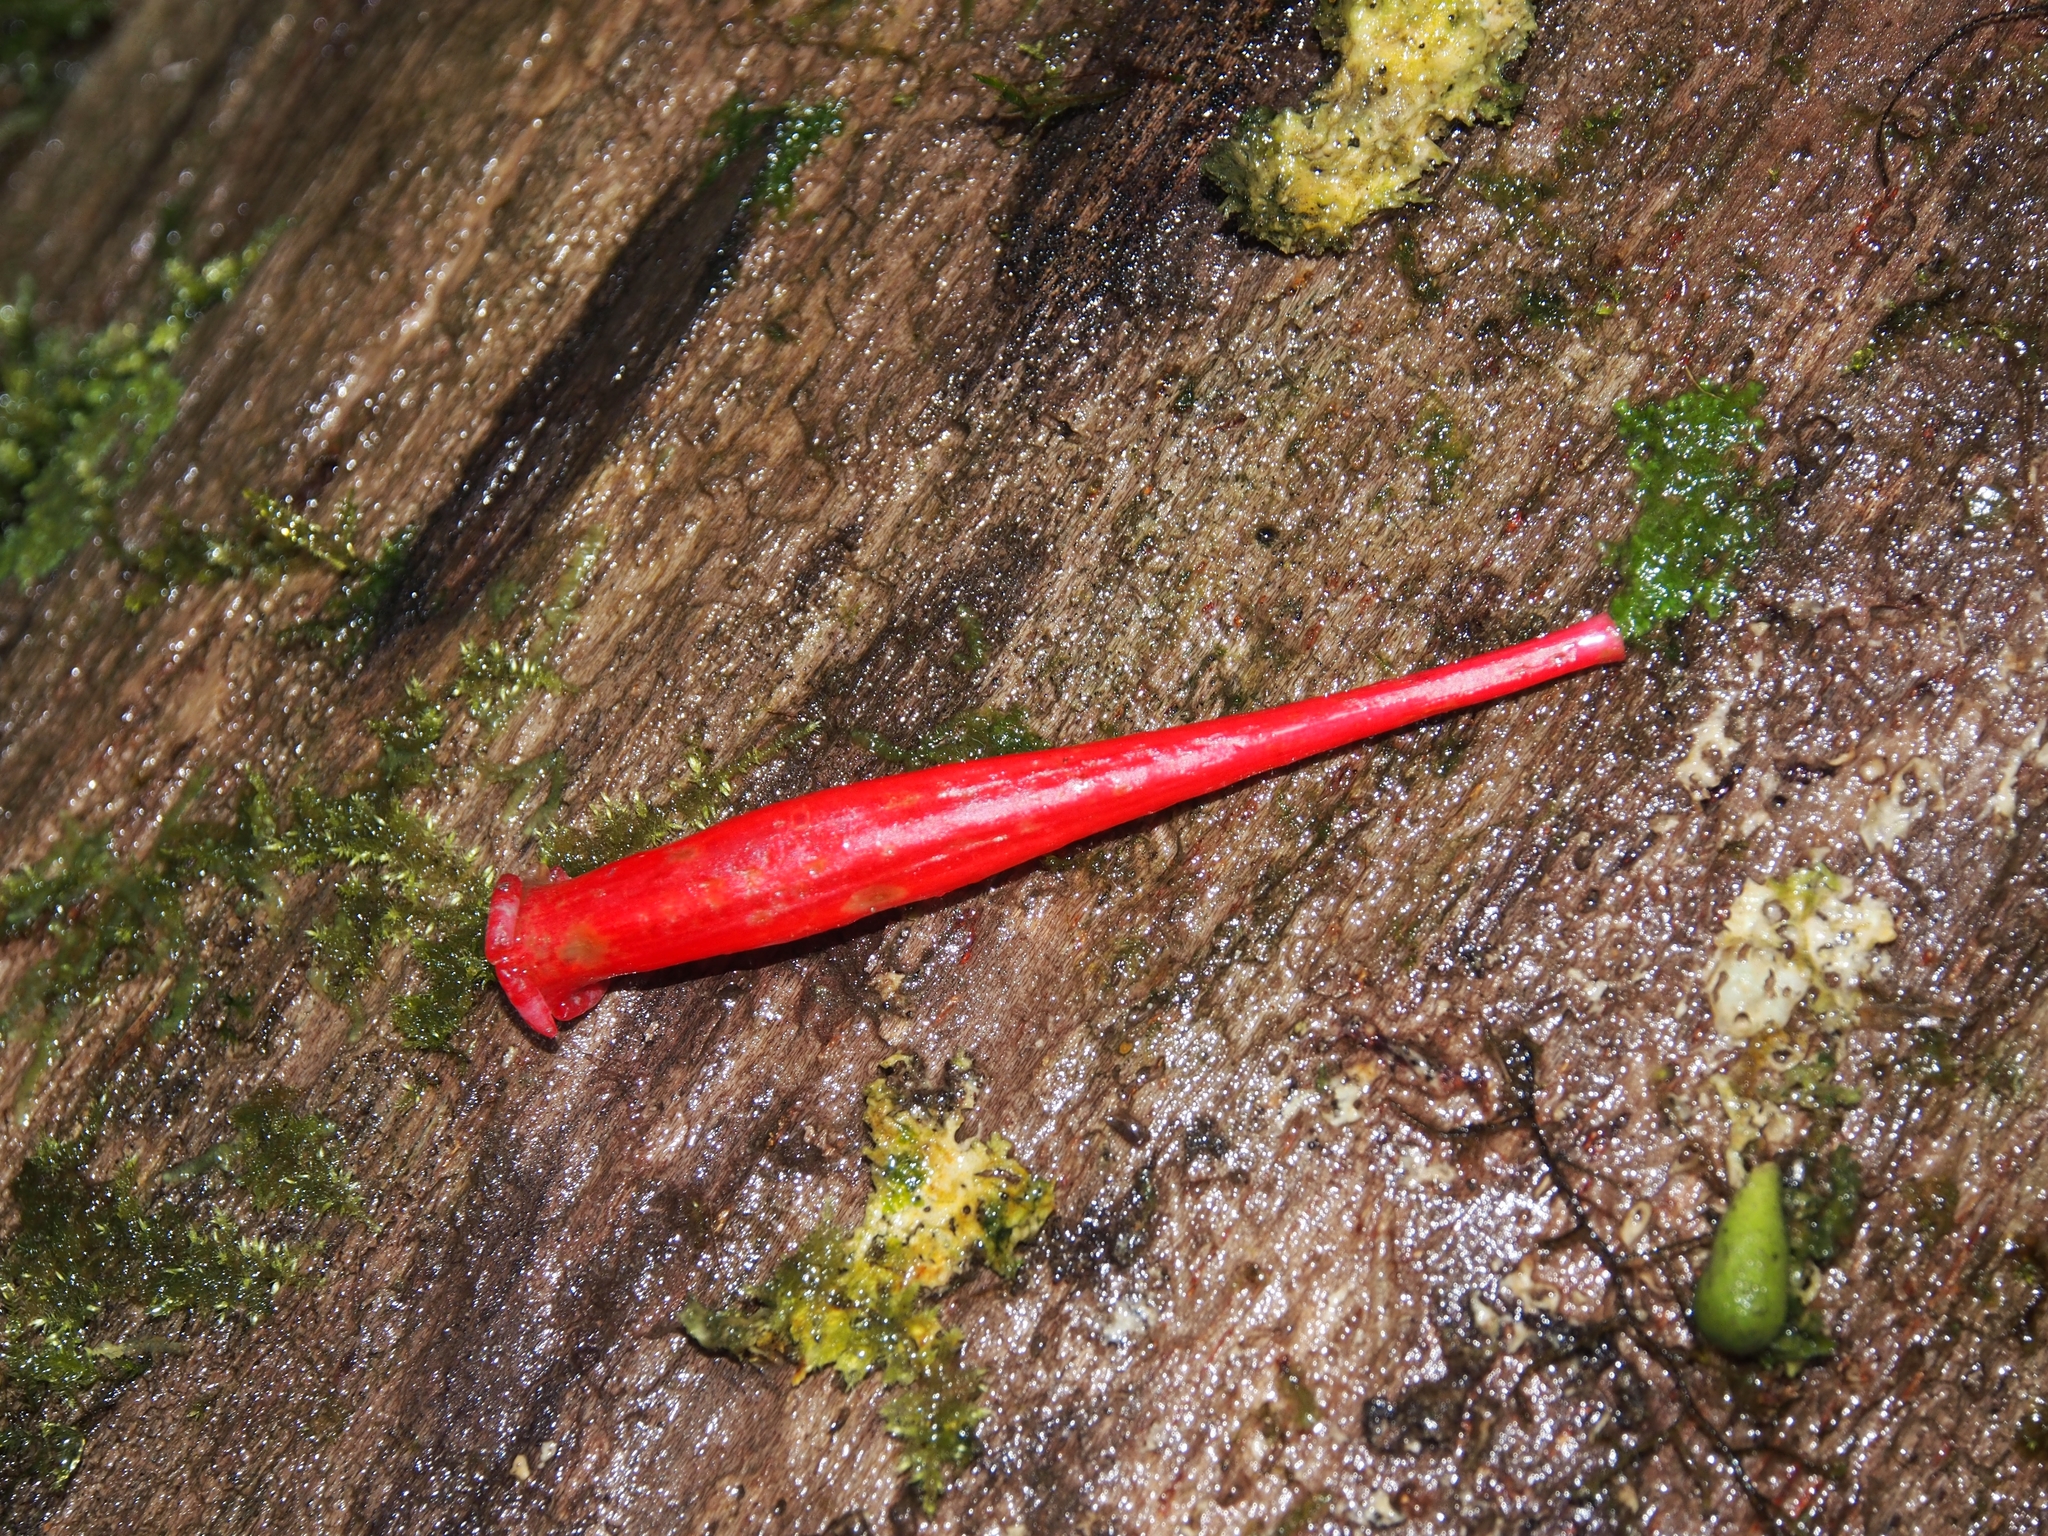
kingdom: Plantae
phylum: Tracheophyta
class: Magnoliopsida
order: Gentianales
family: Rubiaceae
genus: Hillia
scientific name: Hillia triflora
